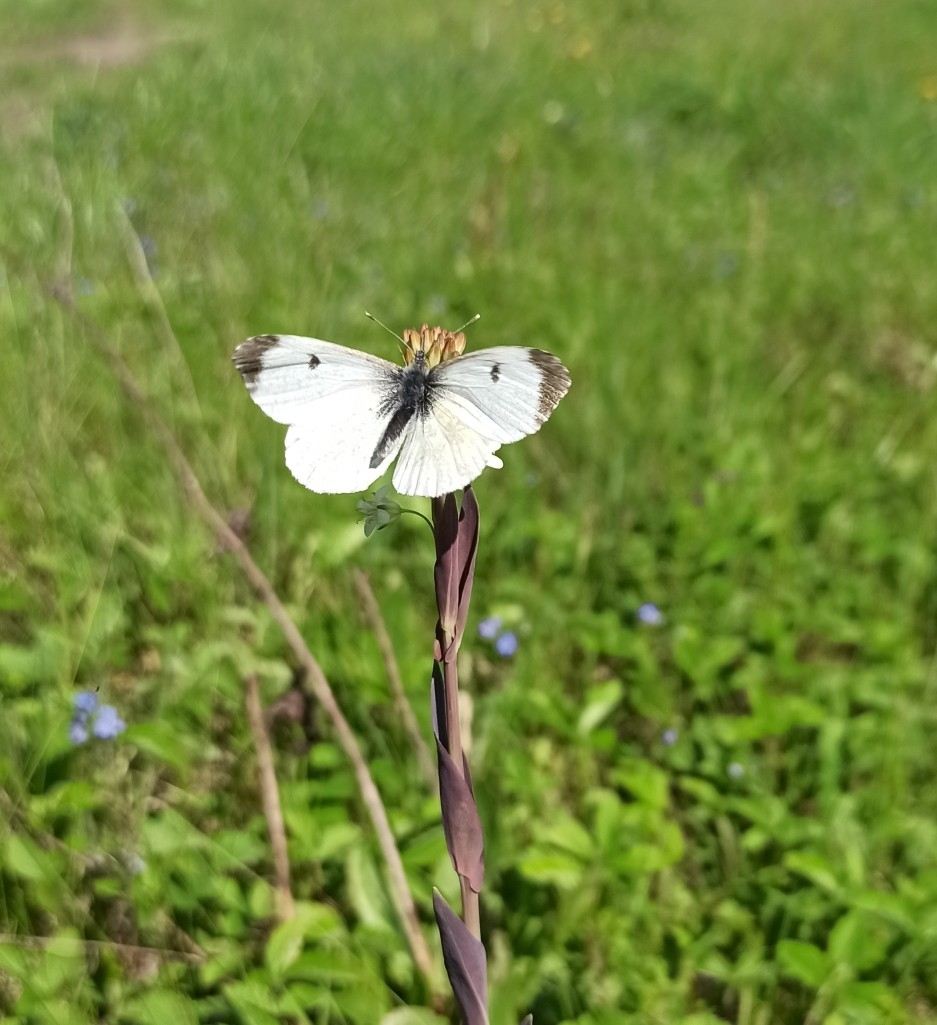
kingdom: Animalia
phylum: Arthropoda
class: Insecta
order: Lepidoptera
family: Pieridae
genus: Anthocharis
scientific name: Anthocharis cardamines
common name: Orange-tip
